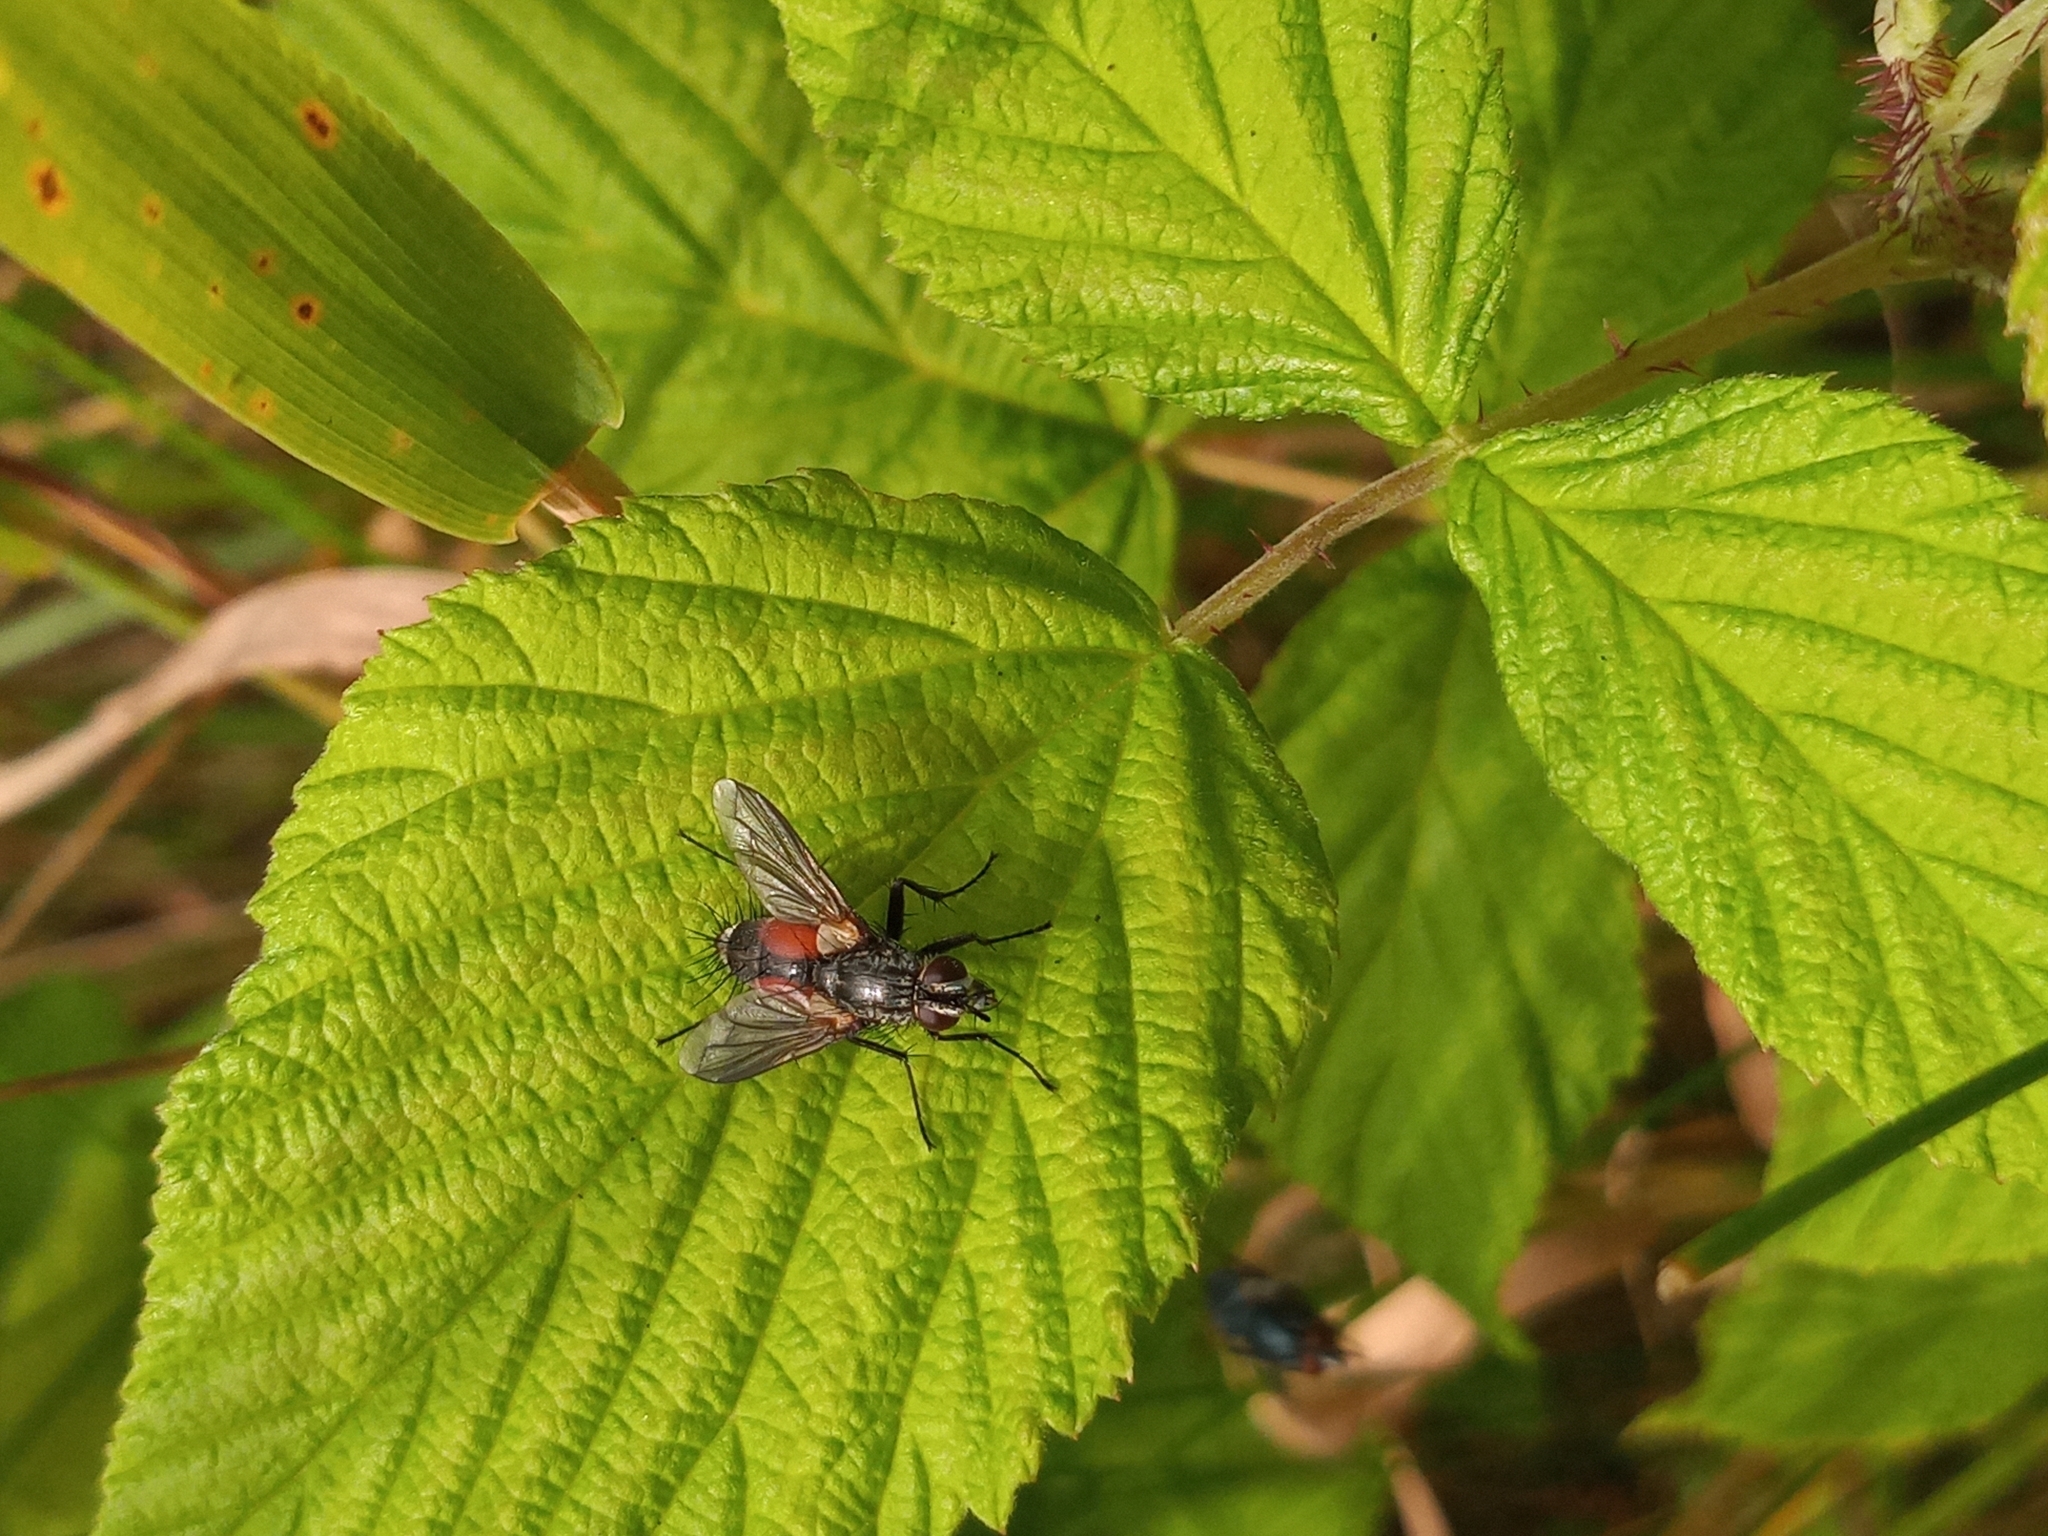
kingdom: Animalia
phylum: Arthropoda
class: Insecta
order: Diptera
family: Tachinidae
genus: Eriothrix
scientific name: Eriothrix rufomaculatus
